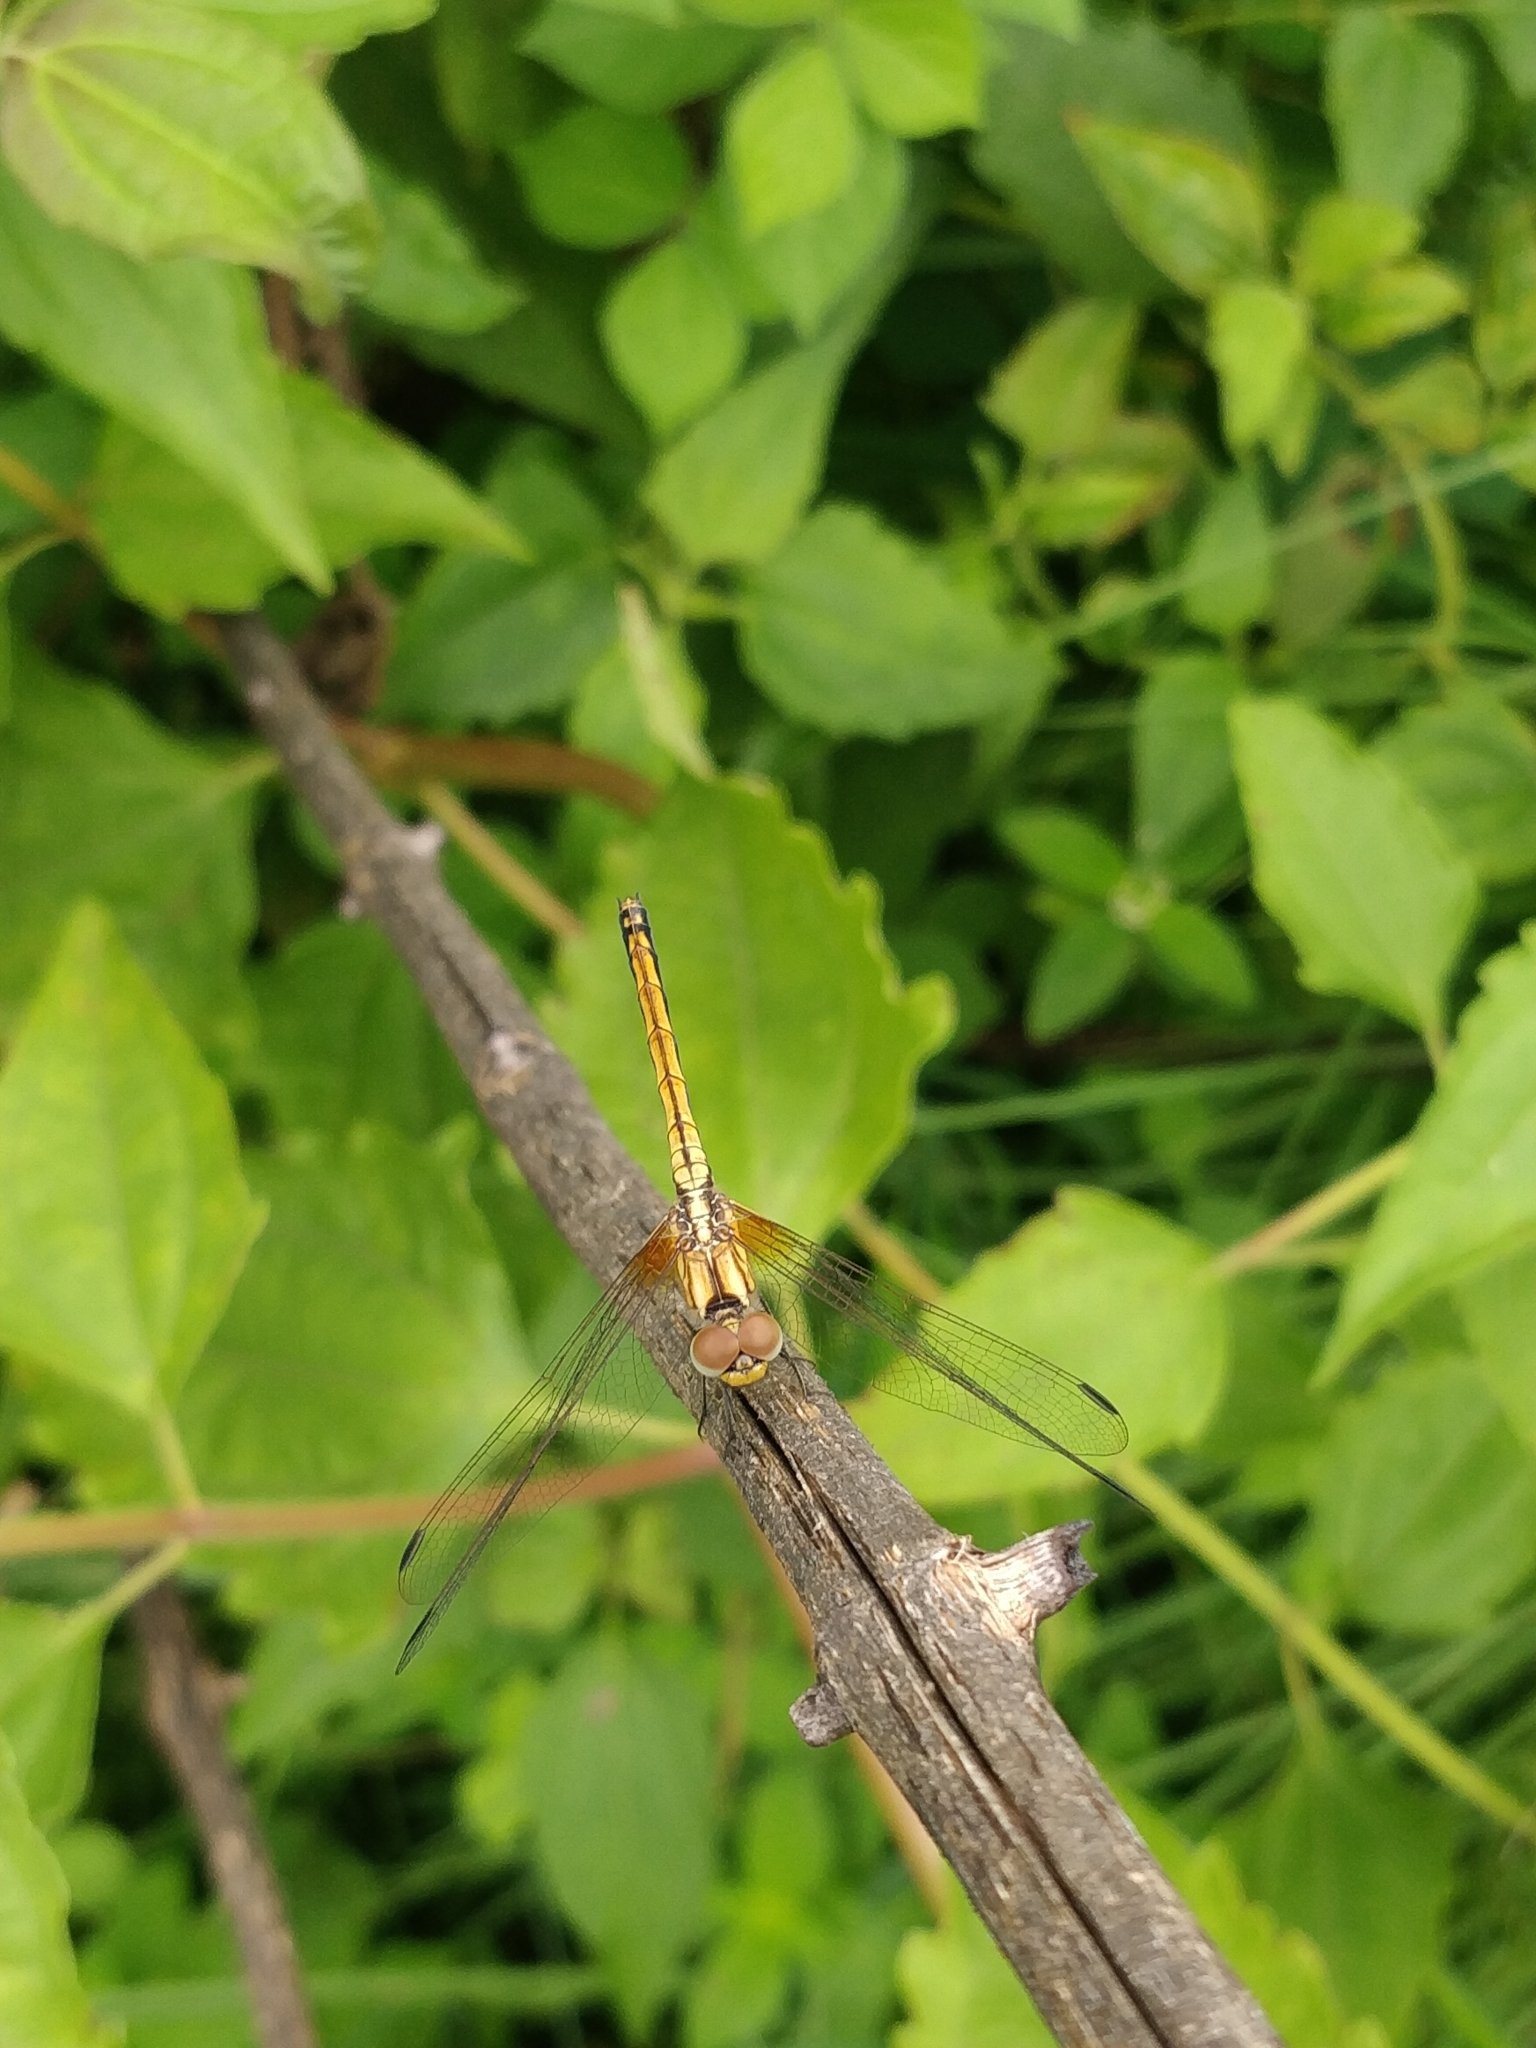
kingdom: Animalia
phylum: Arthropoda
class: Insecta
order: Odonata
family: Libellulidae
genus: Trithemis
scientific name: Trithemis aurora
